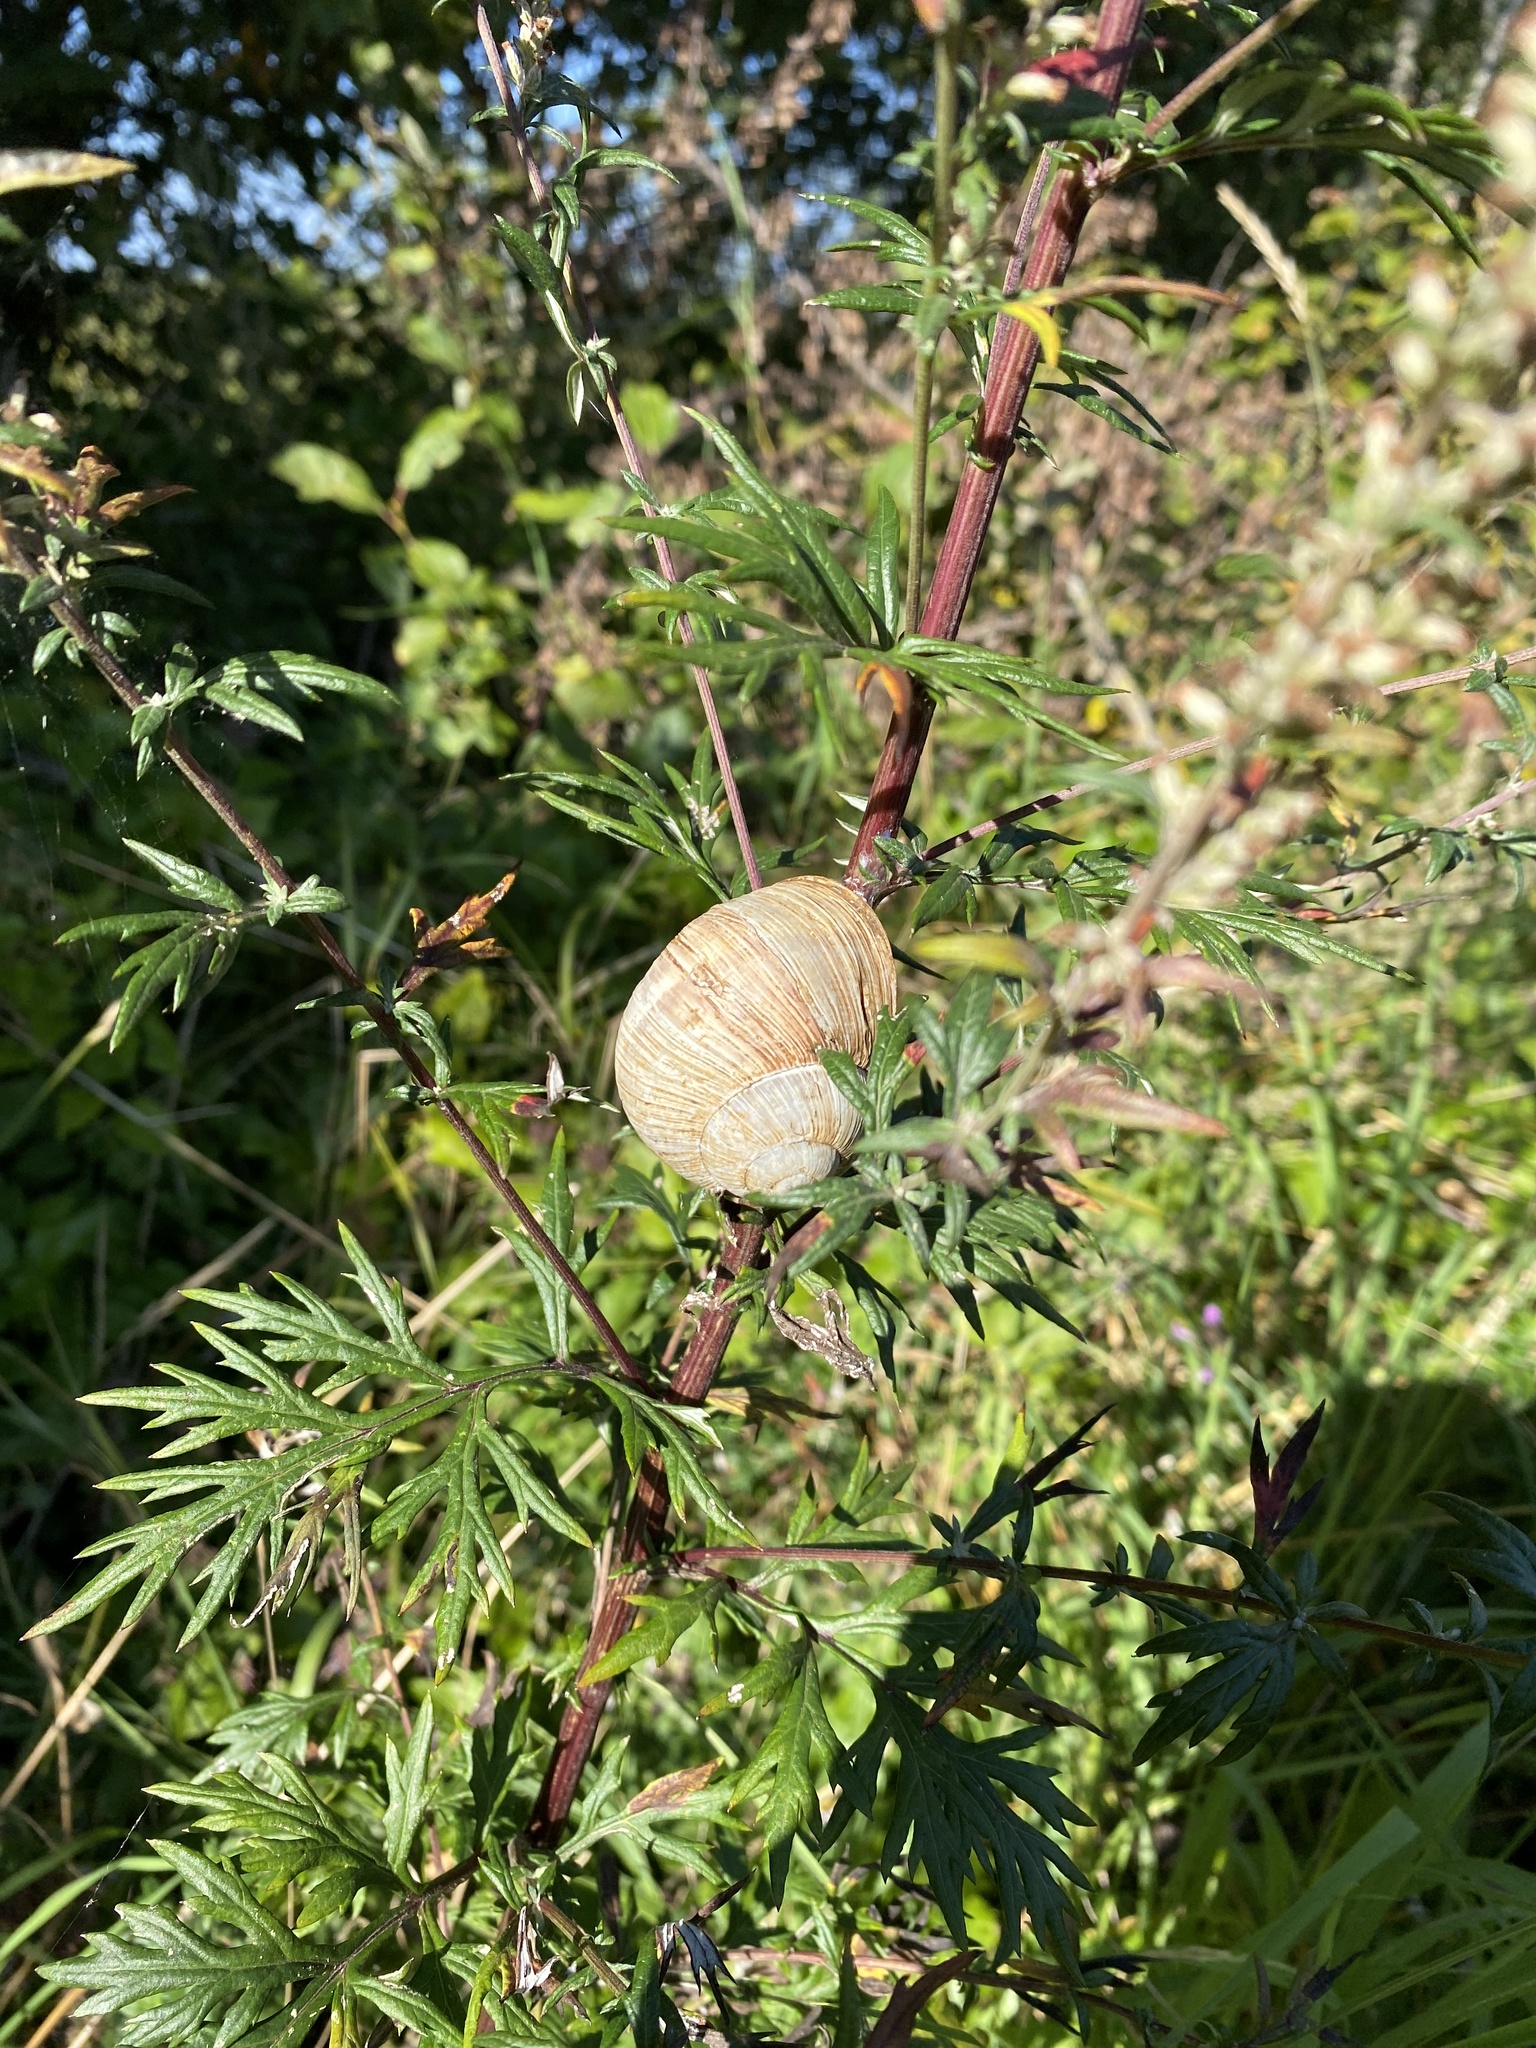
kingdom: Animalia
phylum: Mollusca
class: Gastropoda
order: Stylommatophora
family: Helicidae
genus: Helix
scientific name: Helix pomatia
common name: Roman snail
